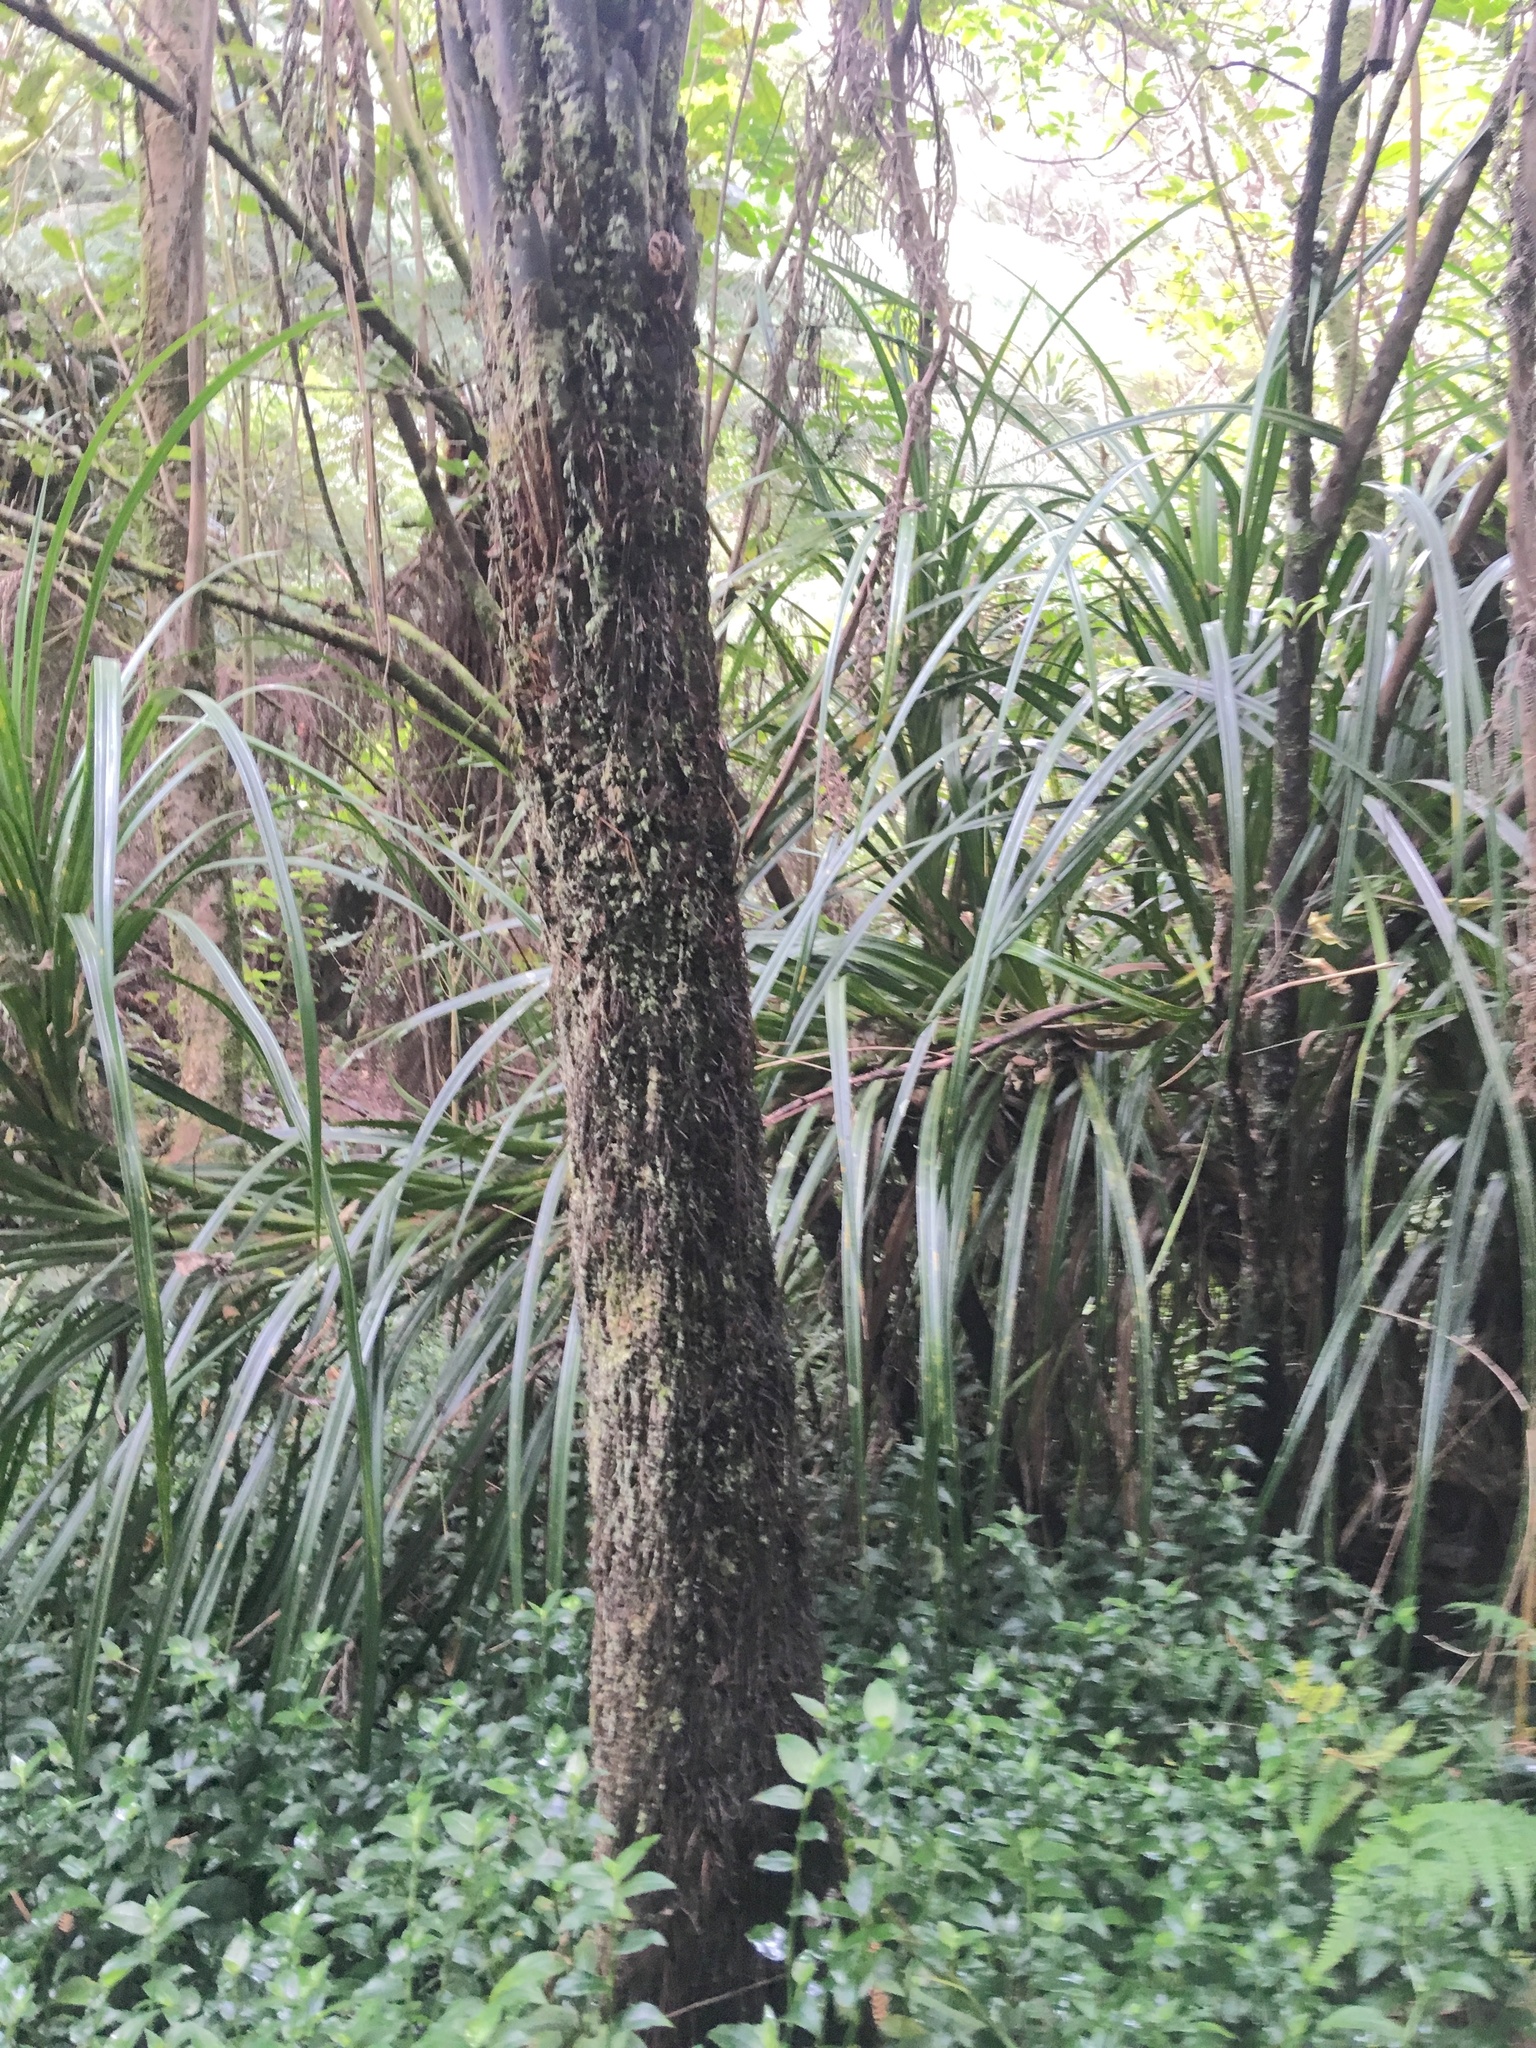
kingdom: Plantae
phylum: Tracheophyta
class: Liliopsida
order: Pandanales
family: Pandanaceae
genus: Freycinetia
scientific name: Freycinetia banksii
